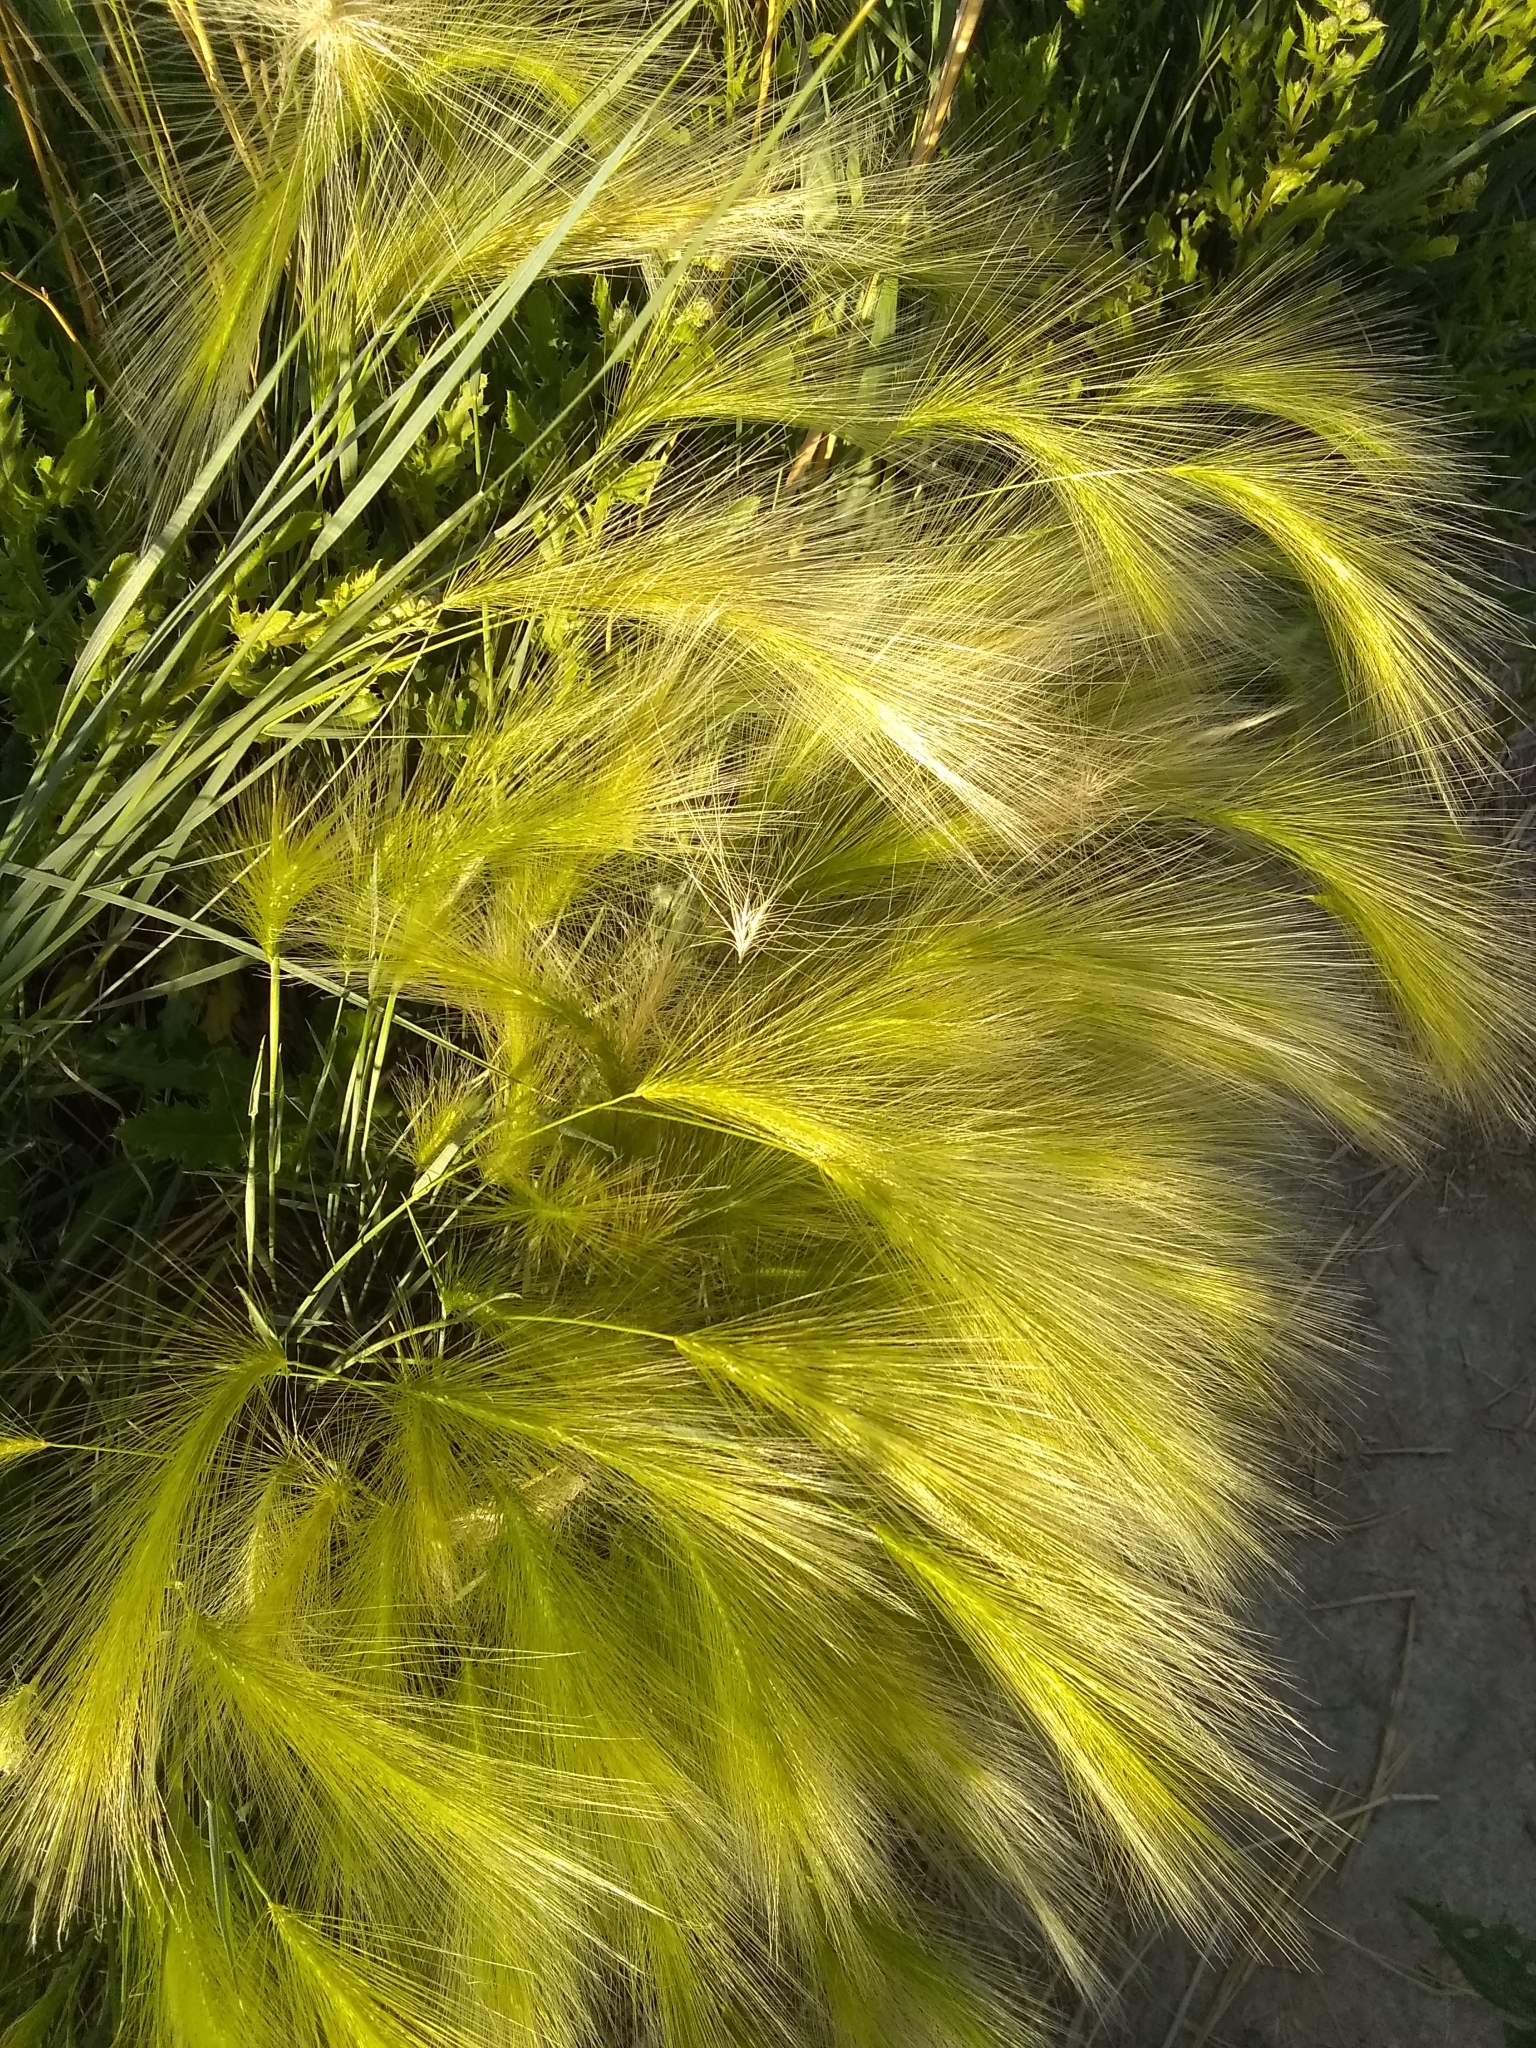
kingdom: Plantae
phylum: Tracheophyta
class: Liliopsida
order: Poales
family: Poaceae
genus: Hordeum
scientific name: Hordeum jubatum
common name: Foxtail barley
